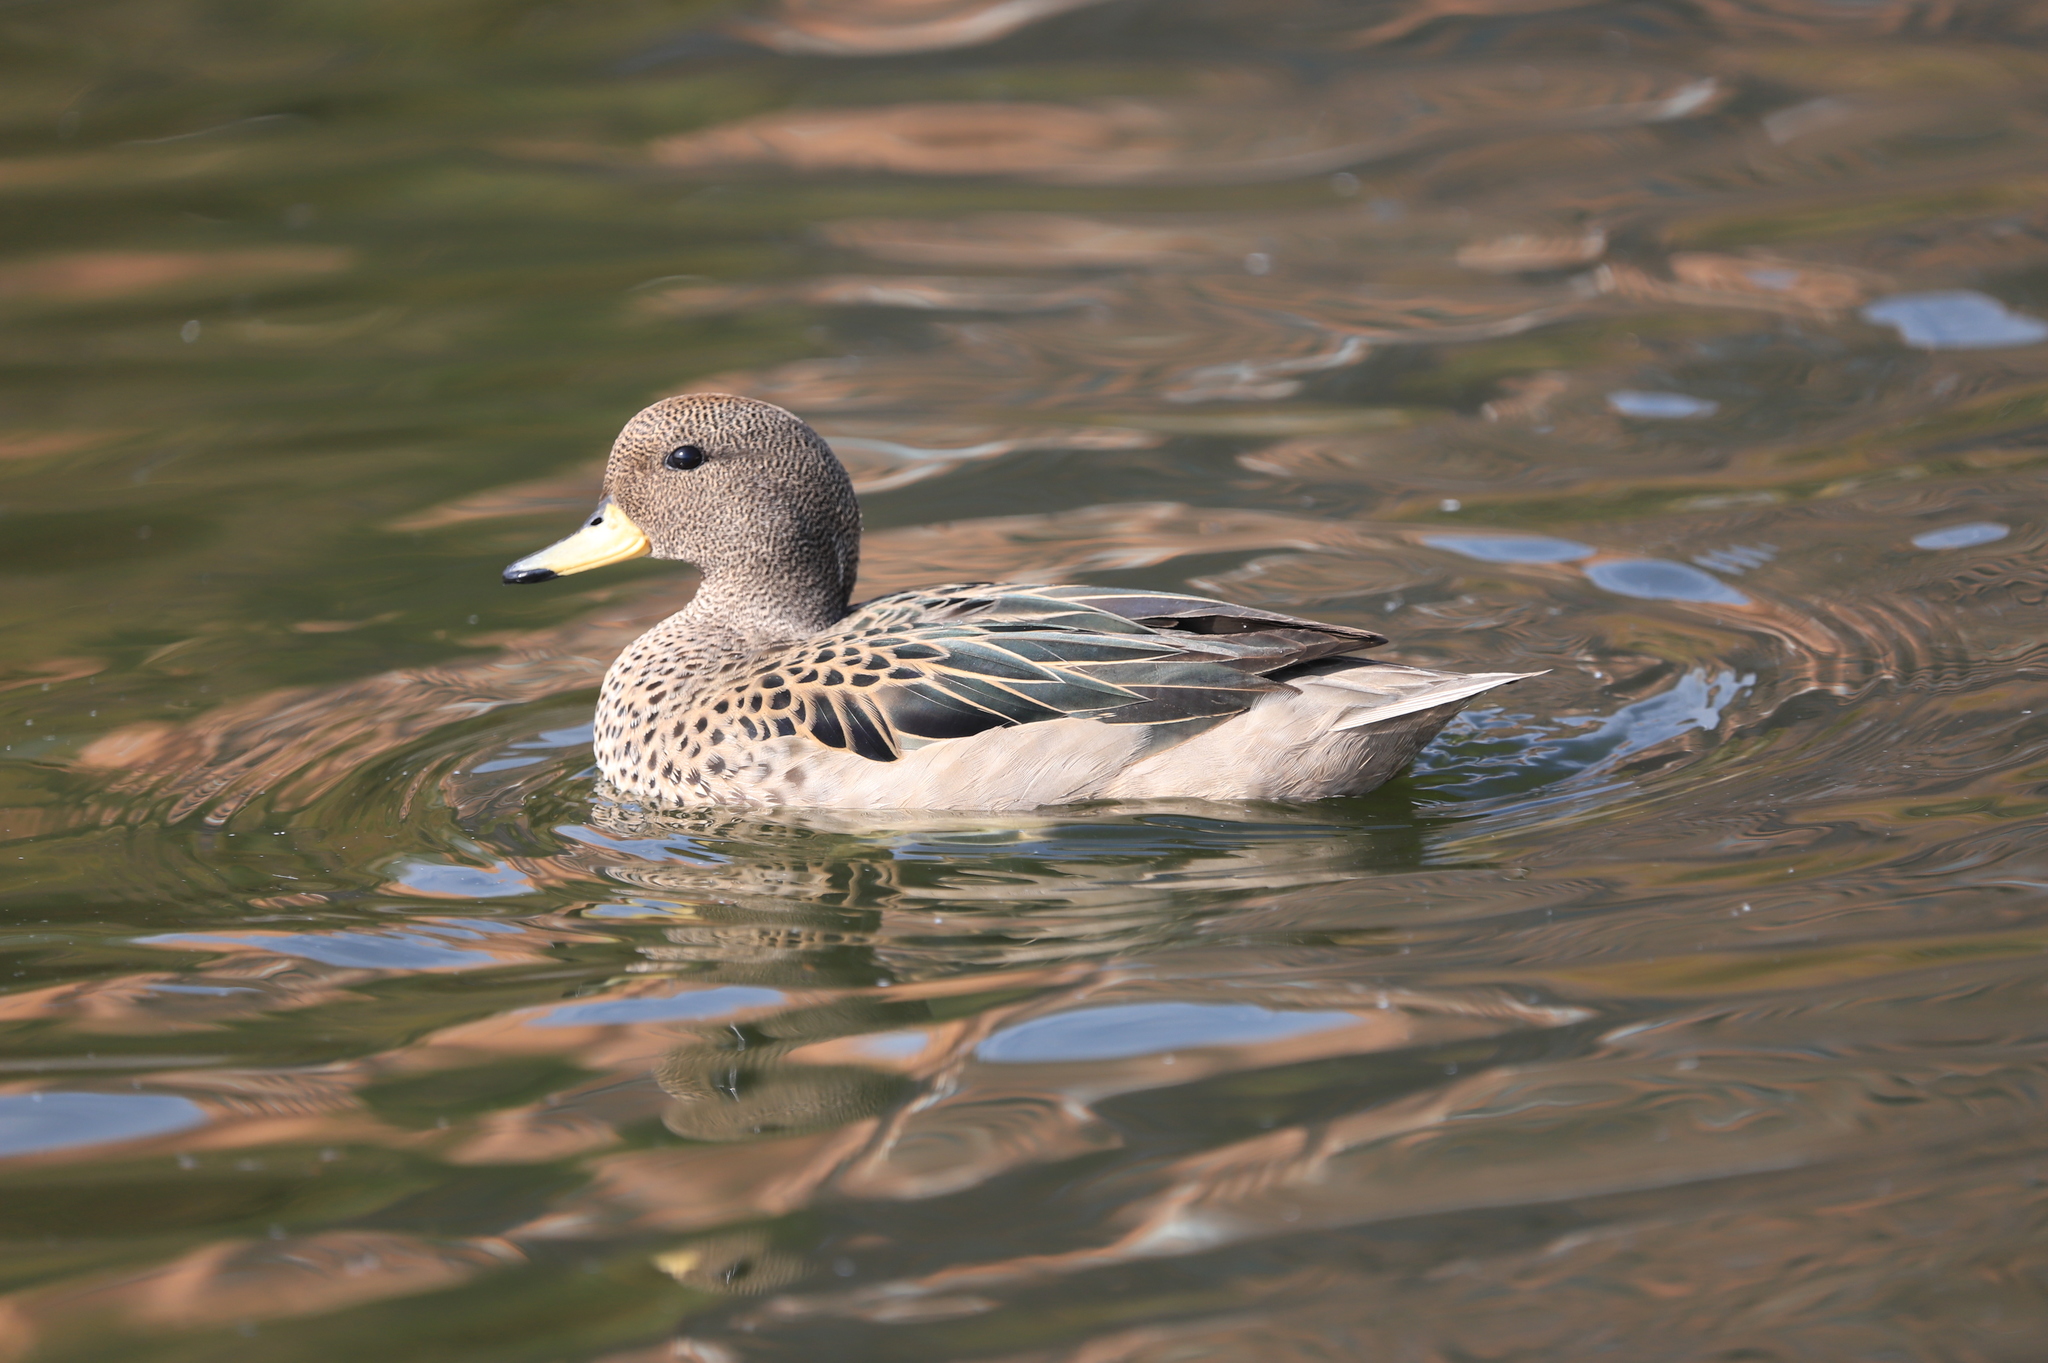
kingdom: Animalia
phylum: Chordata
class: Aves
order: Anseriformes
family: Anatidae
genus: Anas
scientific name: Anas flavirostris
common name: Yellow-billed teal
